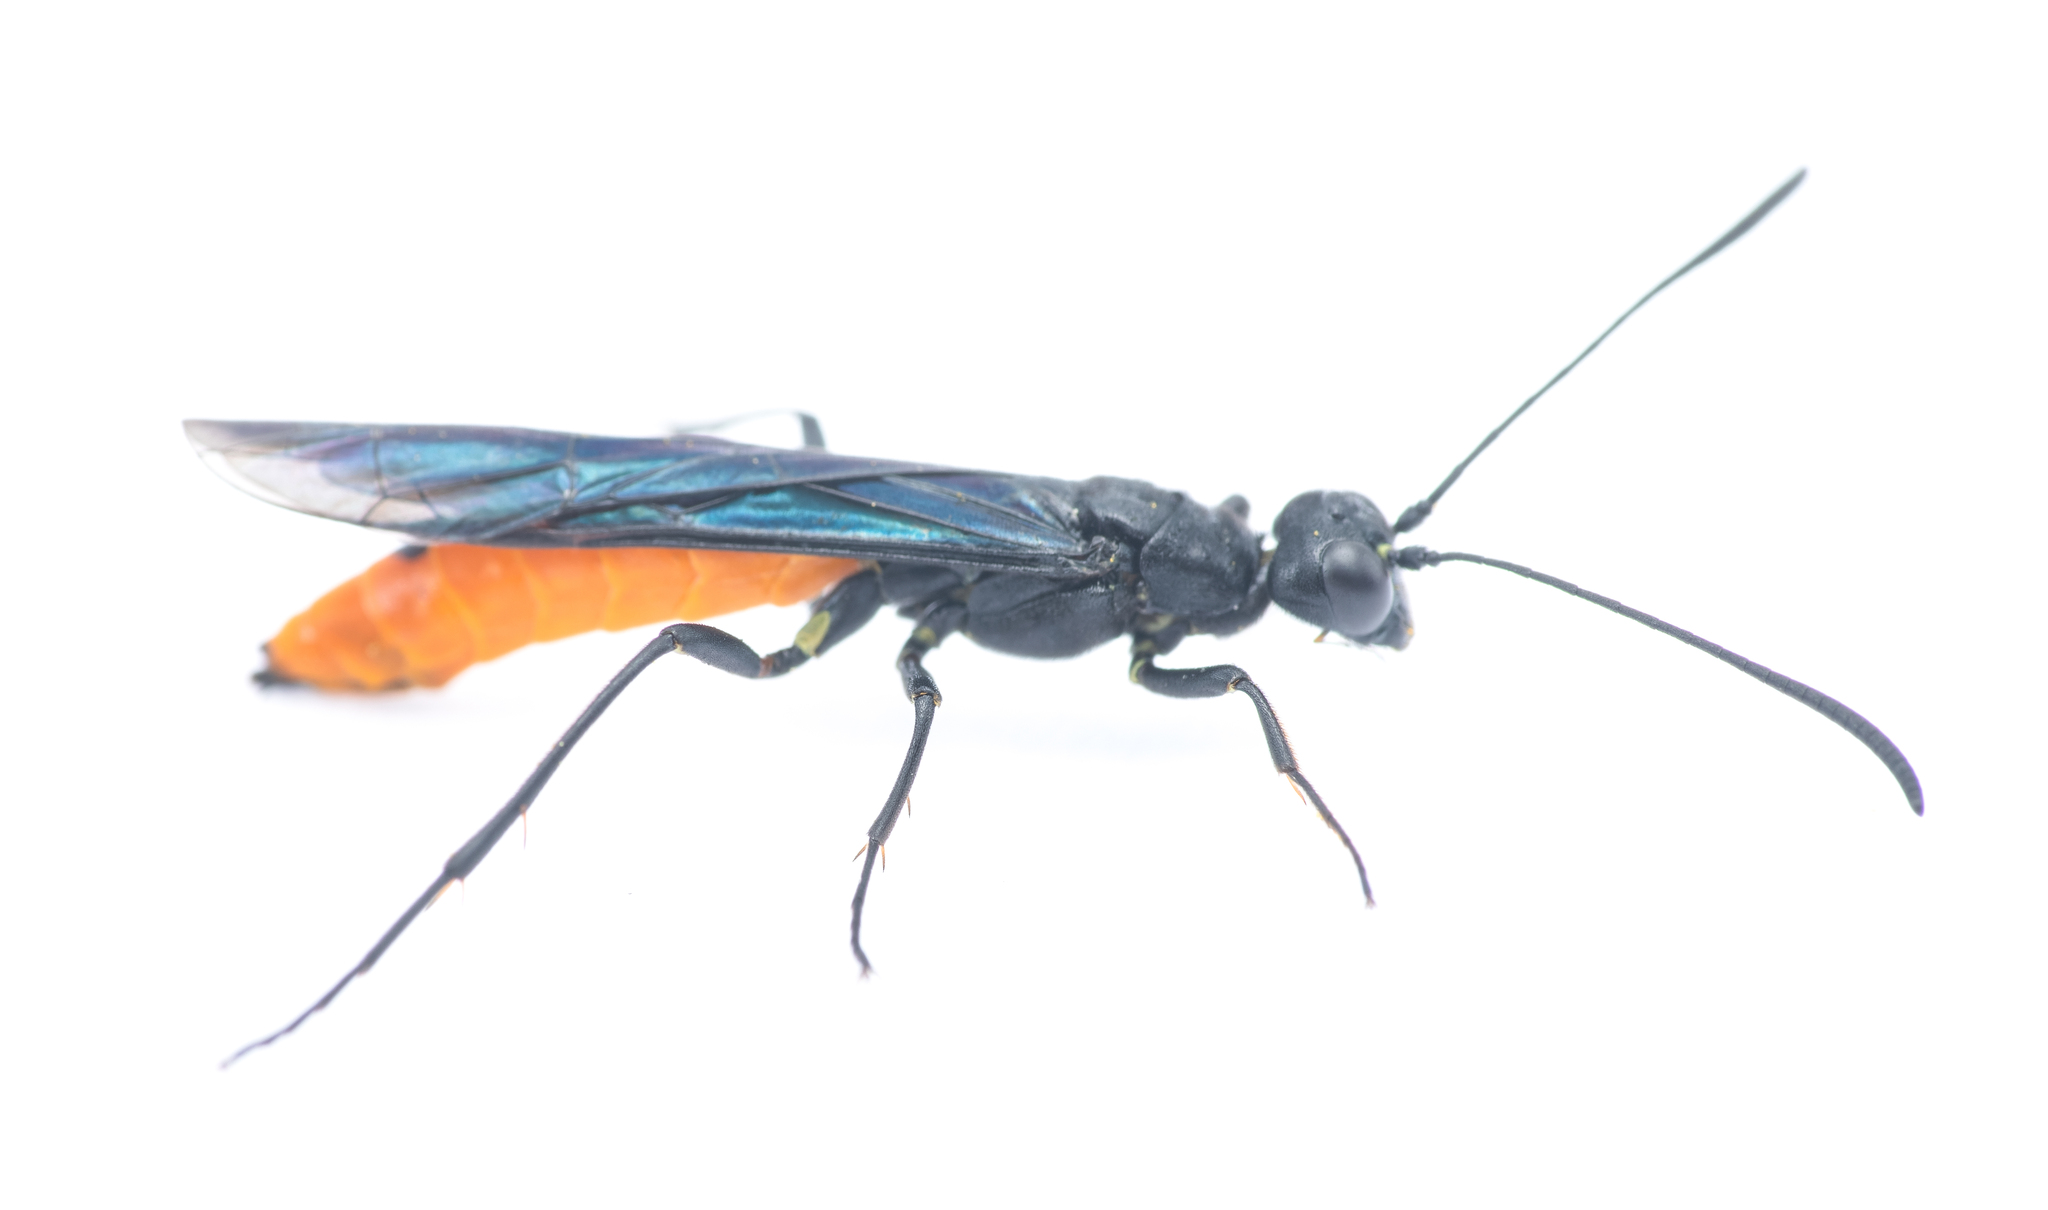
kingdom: Animalia
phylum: Arthropoda
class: Insecta
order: Hymenoptera
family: Ichneumonidae
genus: Ichneumon
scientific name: Ichneumon pygmaeus
